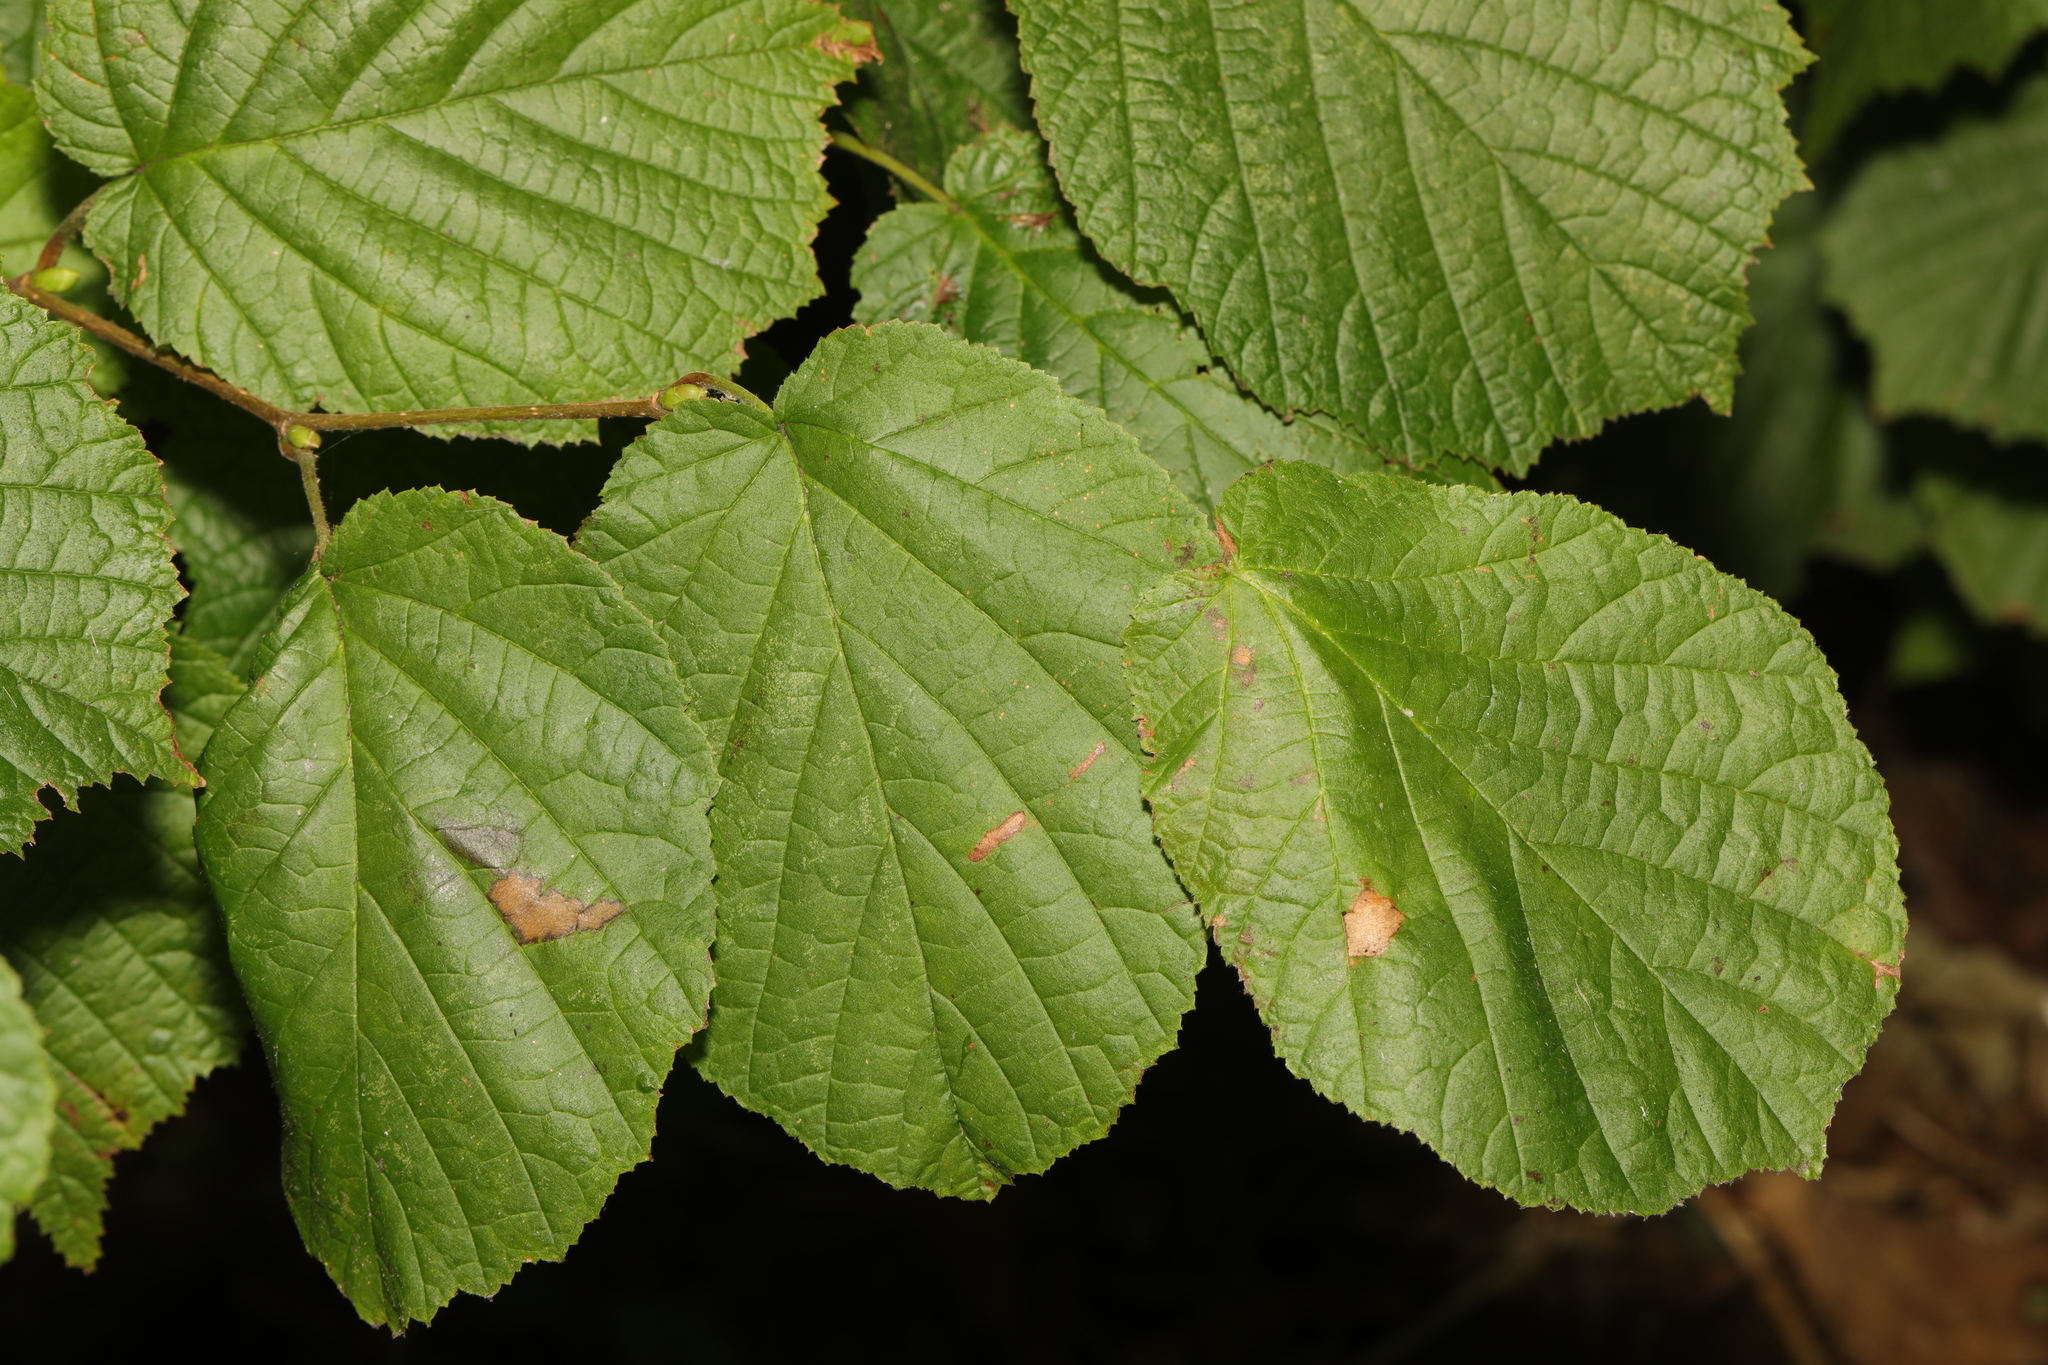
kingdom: Plantae
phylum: Tracheophyta
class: Magnoliopsida
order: Fagales
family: Betulaceae
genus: Corylus
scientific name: Corylus avellana
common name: European hazel
